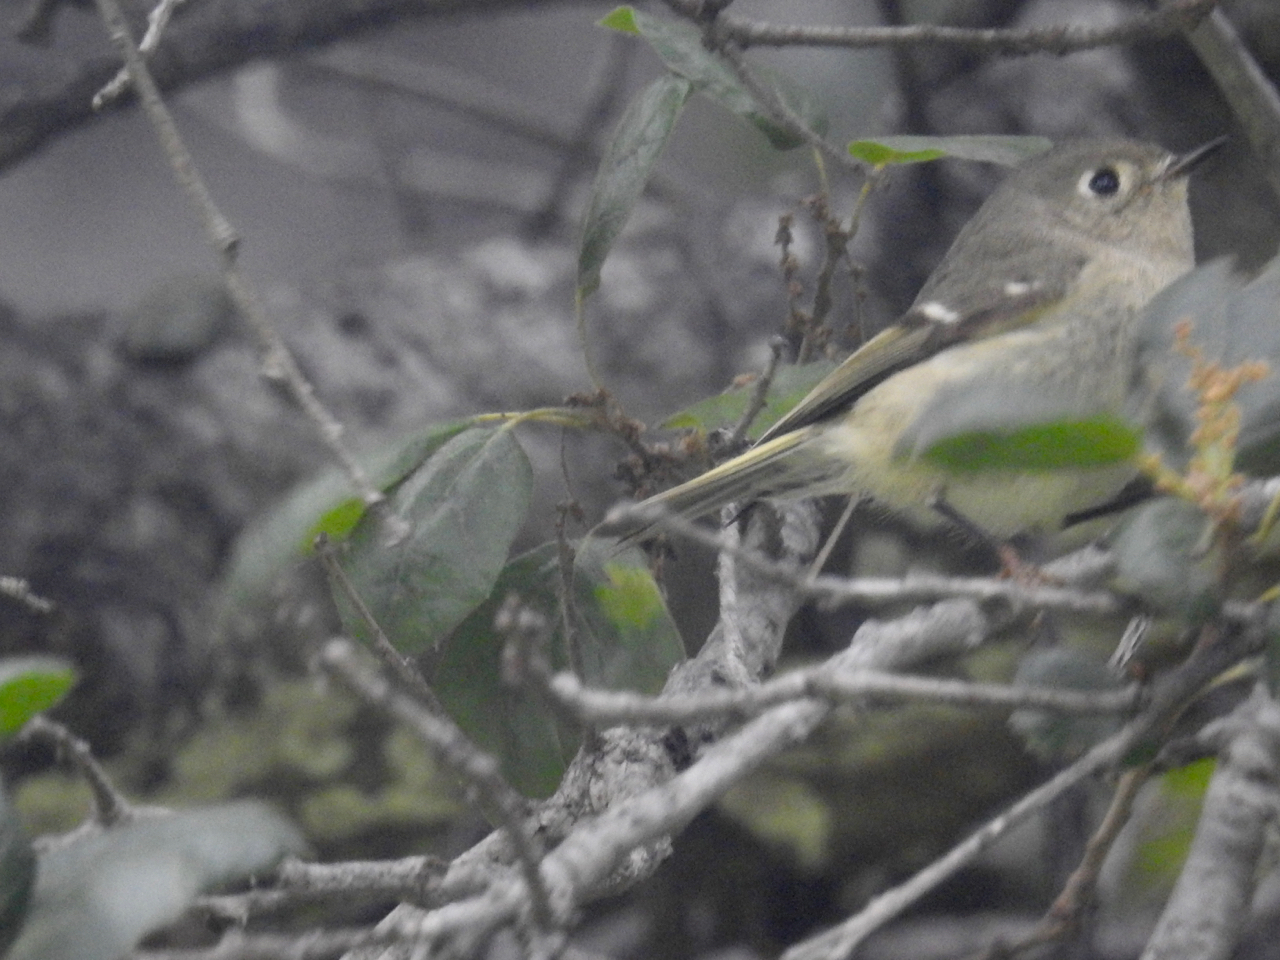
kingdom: Animalia
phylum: Chordata
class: Aves
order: Passeriformes
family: Regulidae
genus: Regulus
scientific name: Regulus calendula
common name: Ruby-crowned kinglet
